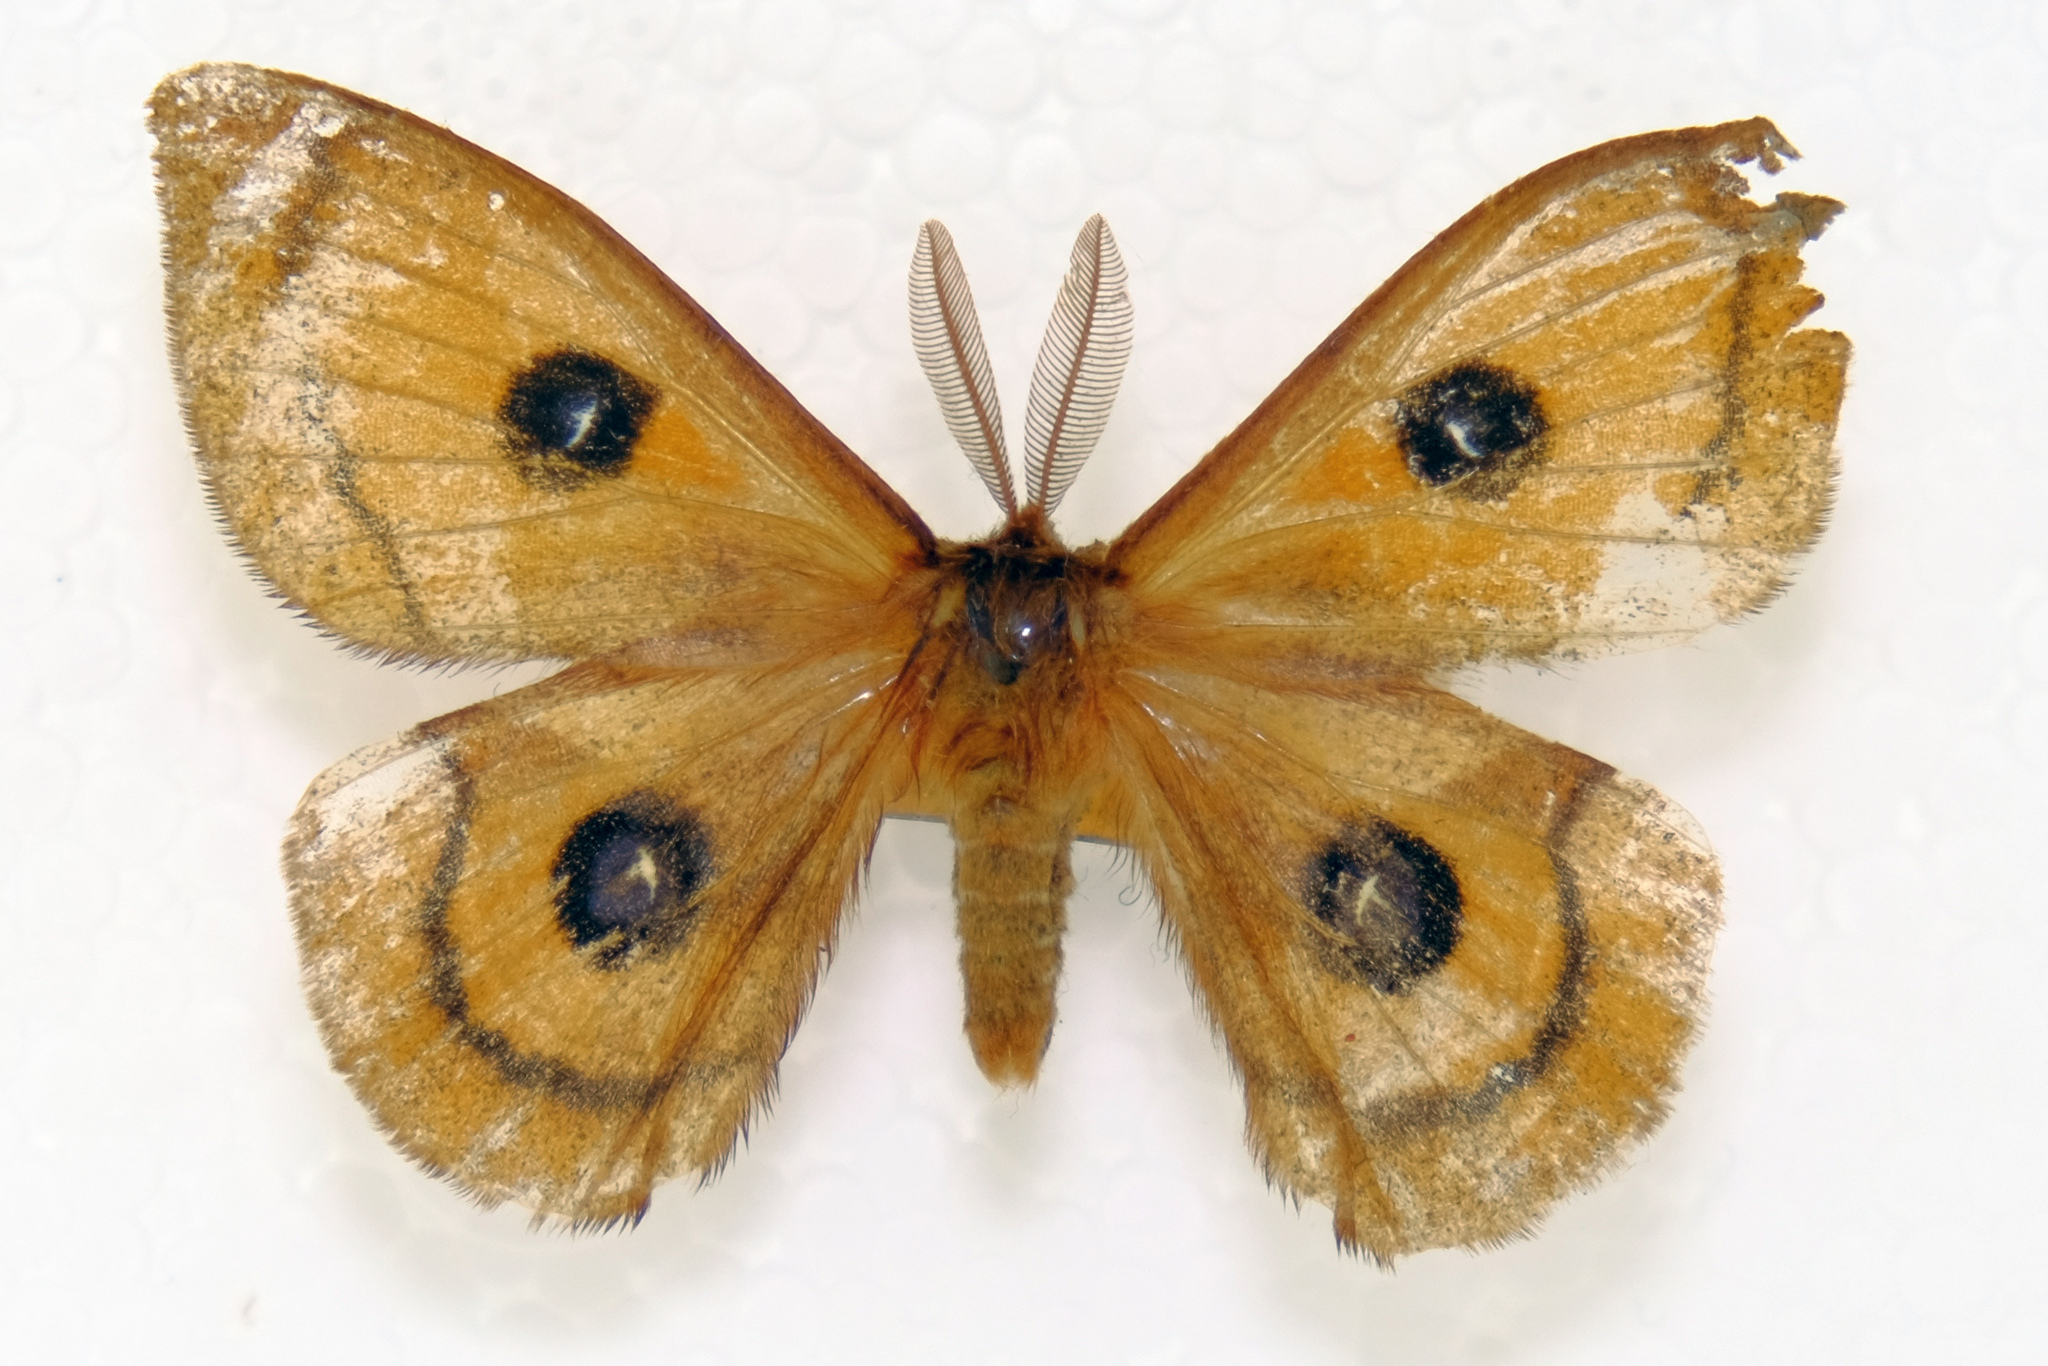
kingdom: Animalia
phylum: Arthropoda
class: Insecta
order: Lepidoptera
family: Saturniidae
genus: Aglia
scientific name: Aglia tau
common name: Tau emperor
